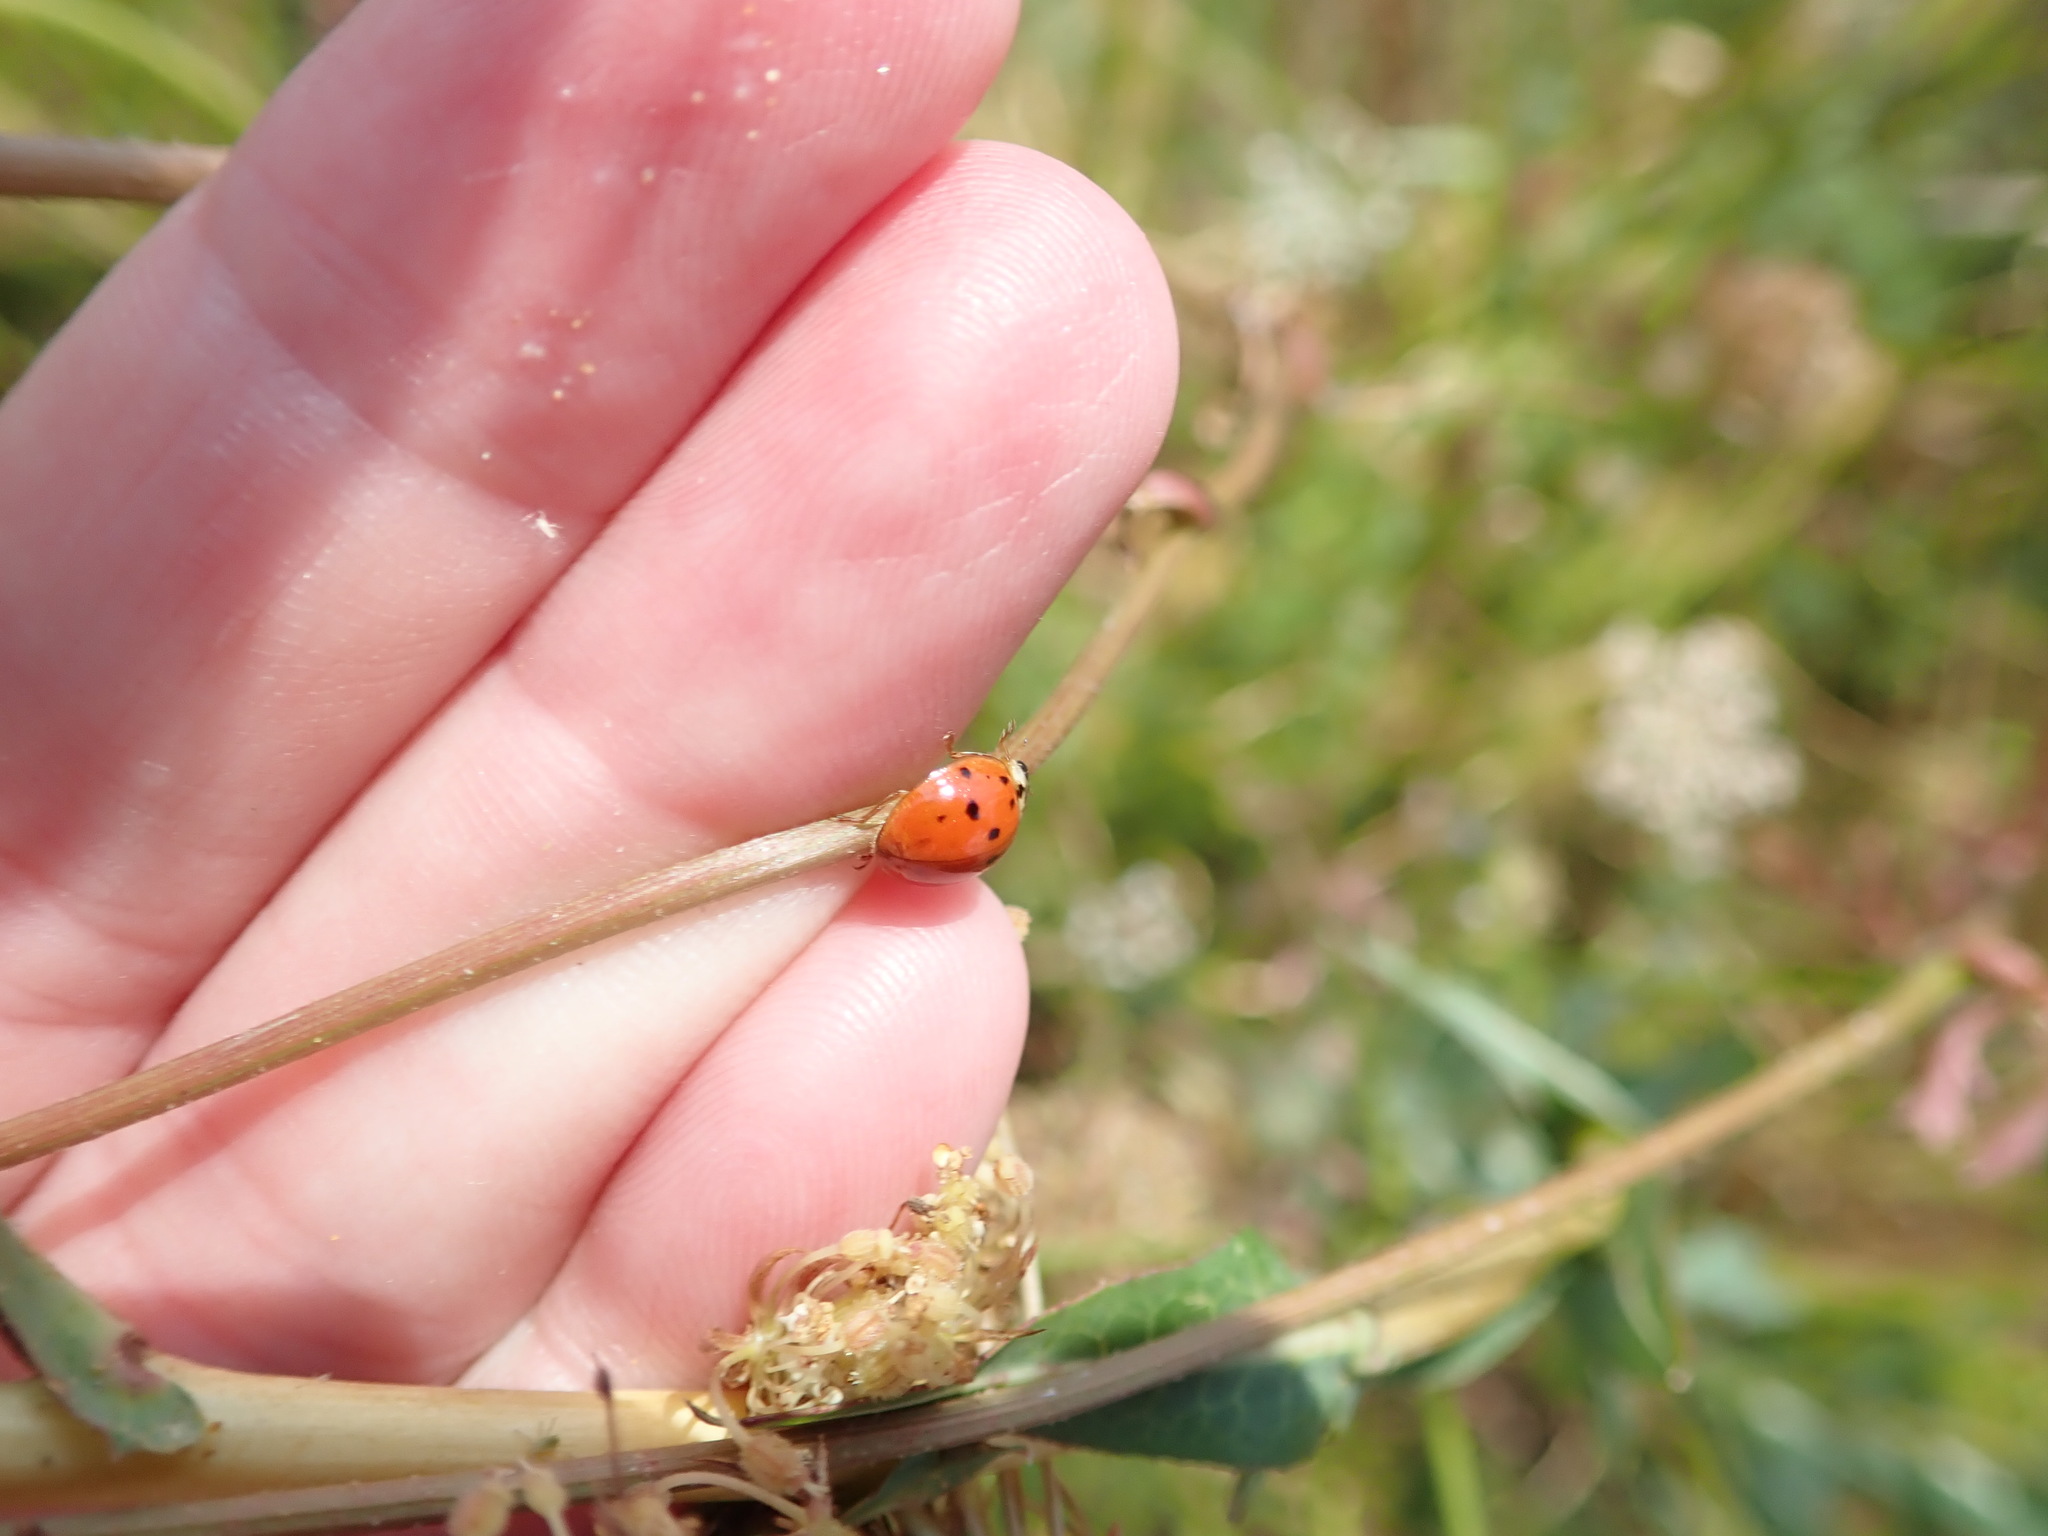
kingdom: Animalia
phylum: Arthropoda
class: Insecta
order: Coleoptera
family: Coccinellidae
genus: Harmonia
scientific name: Harmonia axyridis
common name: Harlequin ladybird
